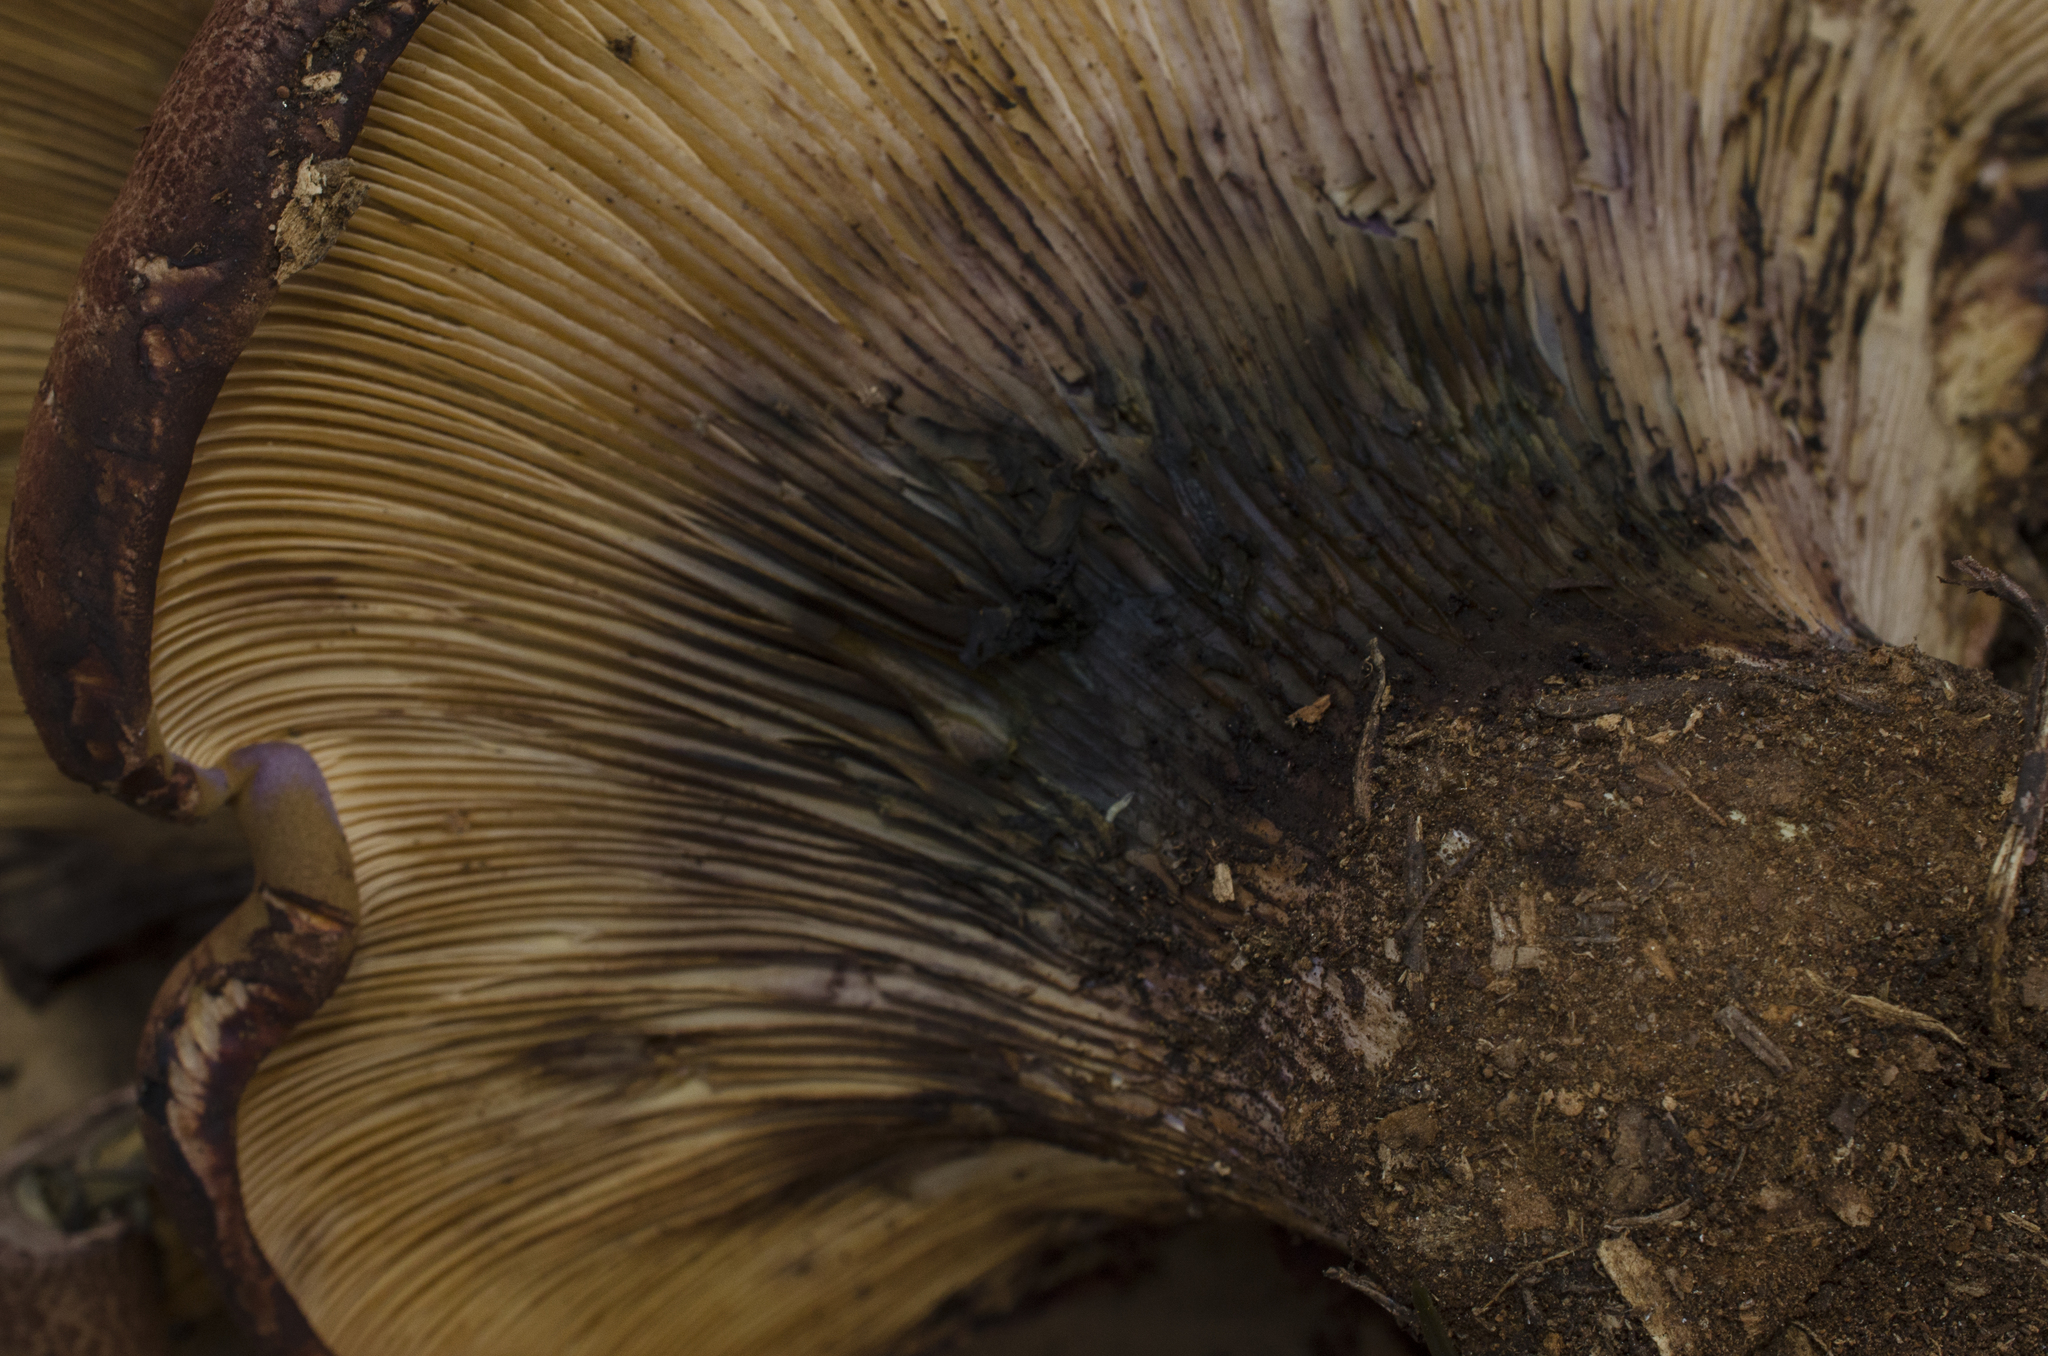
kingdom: Fungi
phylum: Basidiomycota
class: Agaricomycetes
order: Boletales
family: Tapinellaceae
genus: Tapinella
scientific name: Tapinella atrotomentosa
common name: Velvet rollrim
